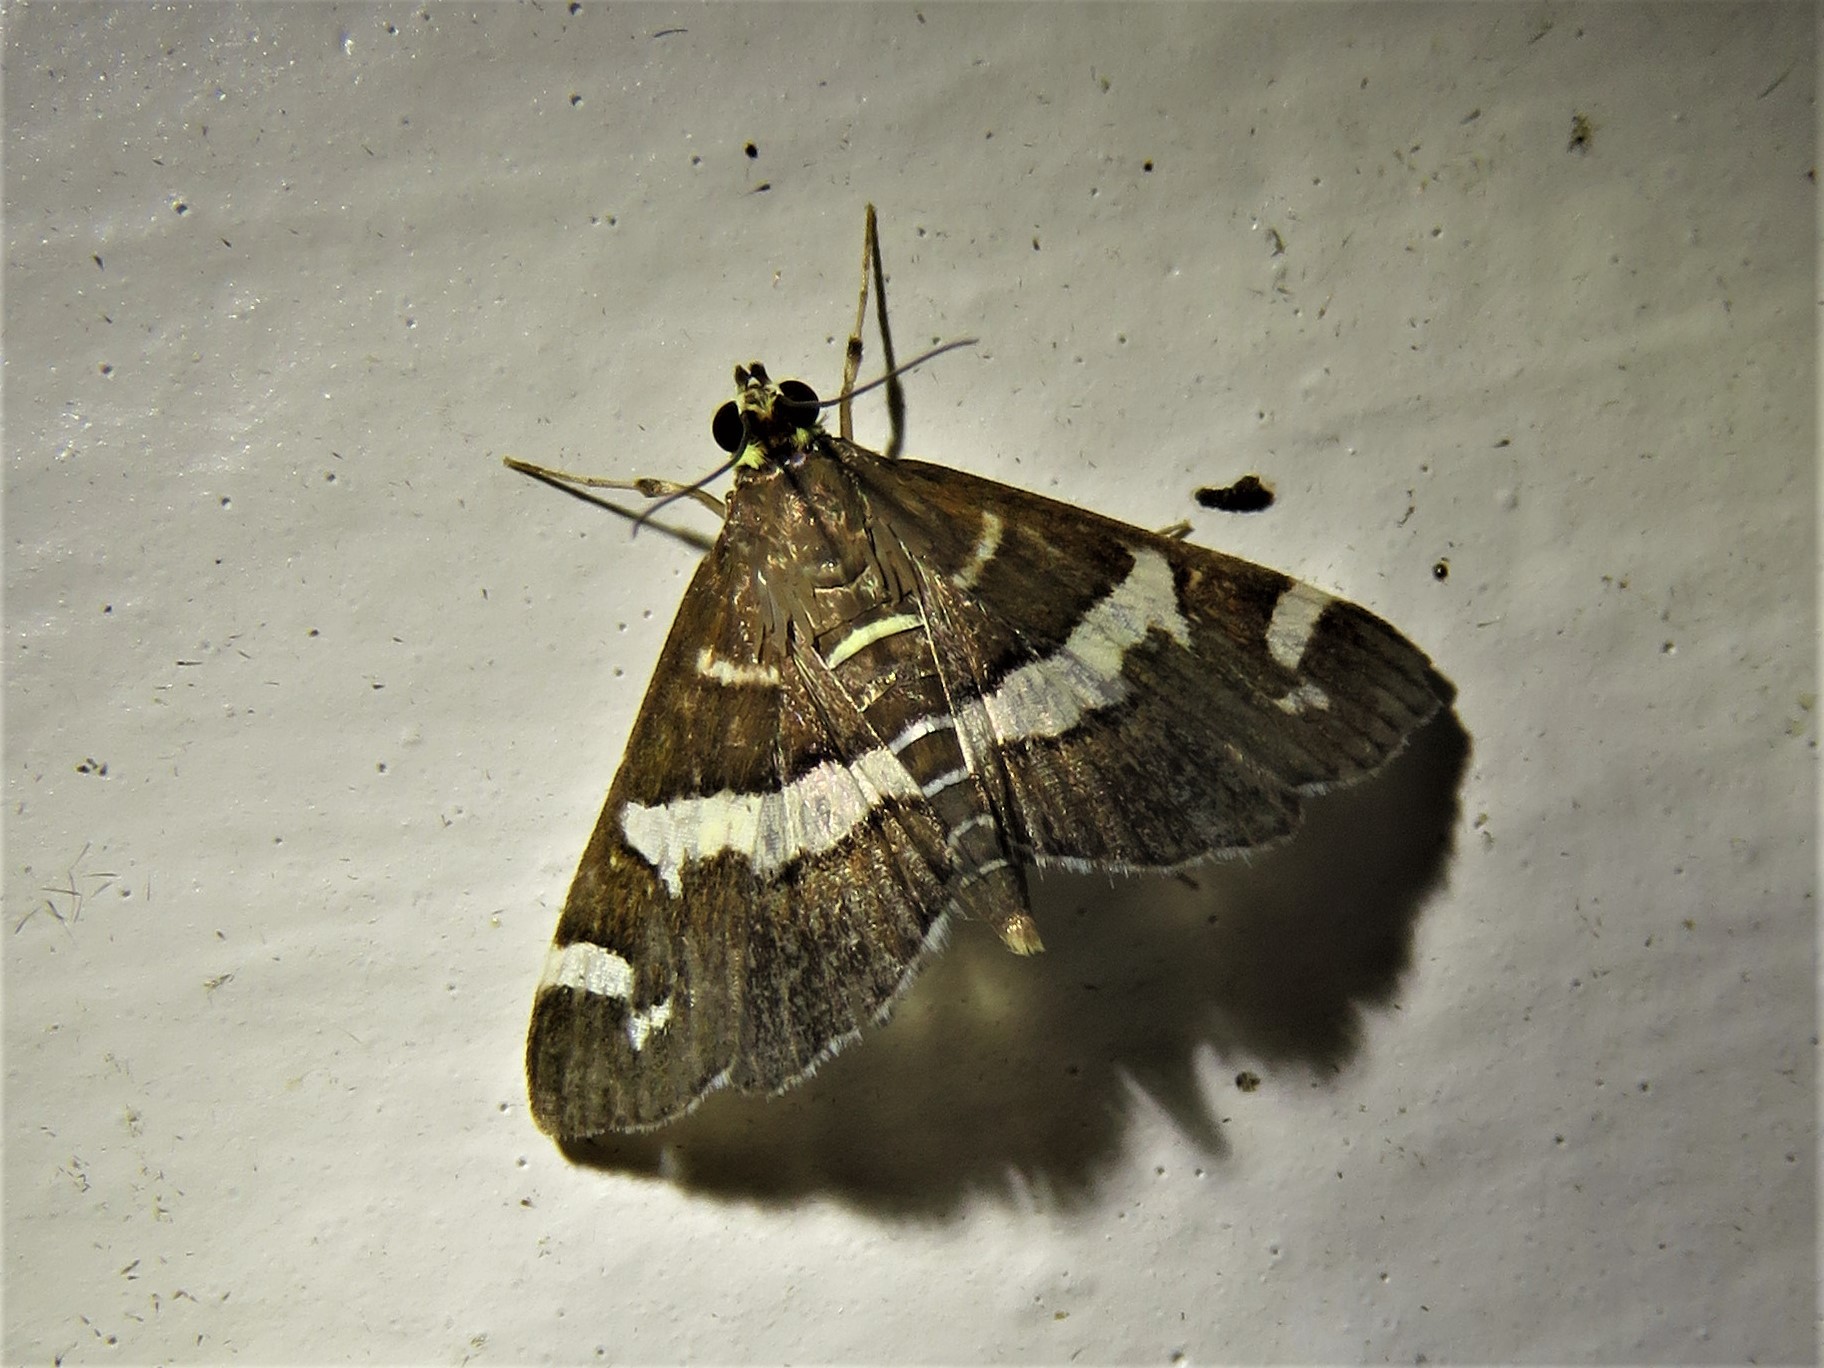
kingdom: Animalia
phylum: Arthropoda
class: Insecta
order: Lepidoptera
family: Crambidae
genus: Spoladea
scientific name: Spoladea recurvalis
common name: Beet webworm moth
